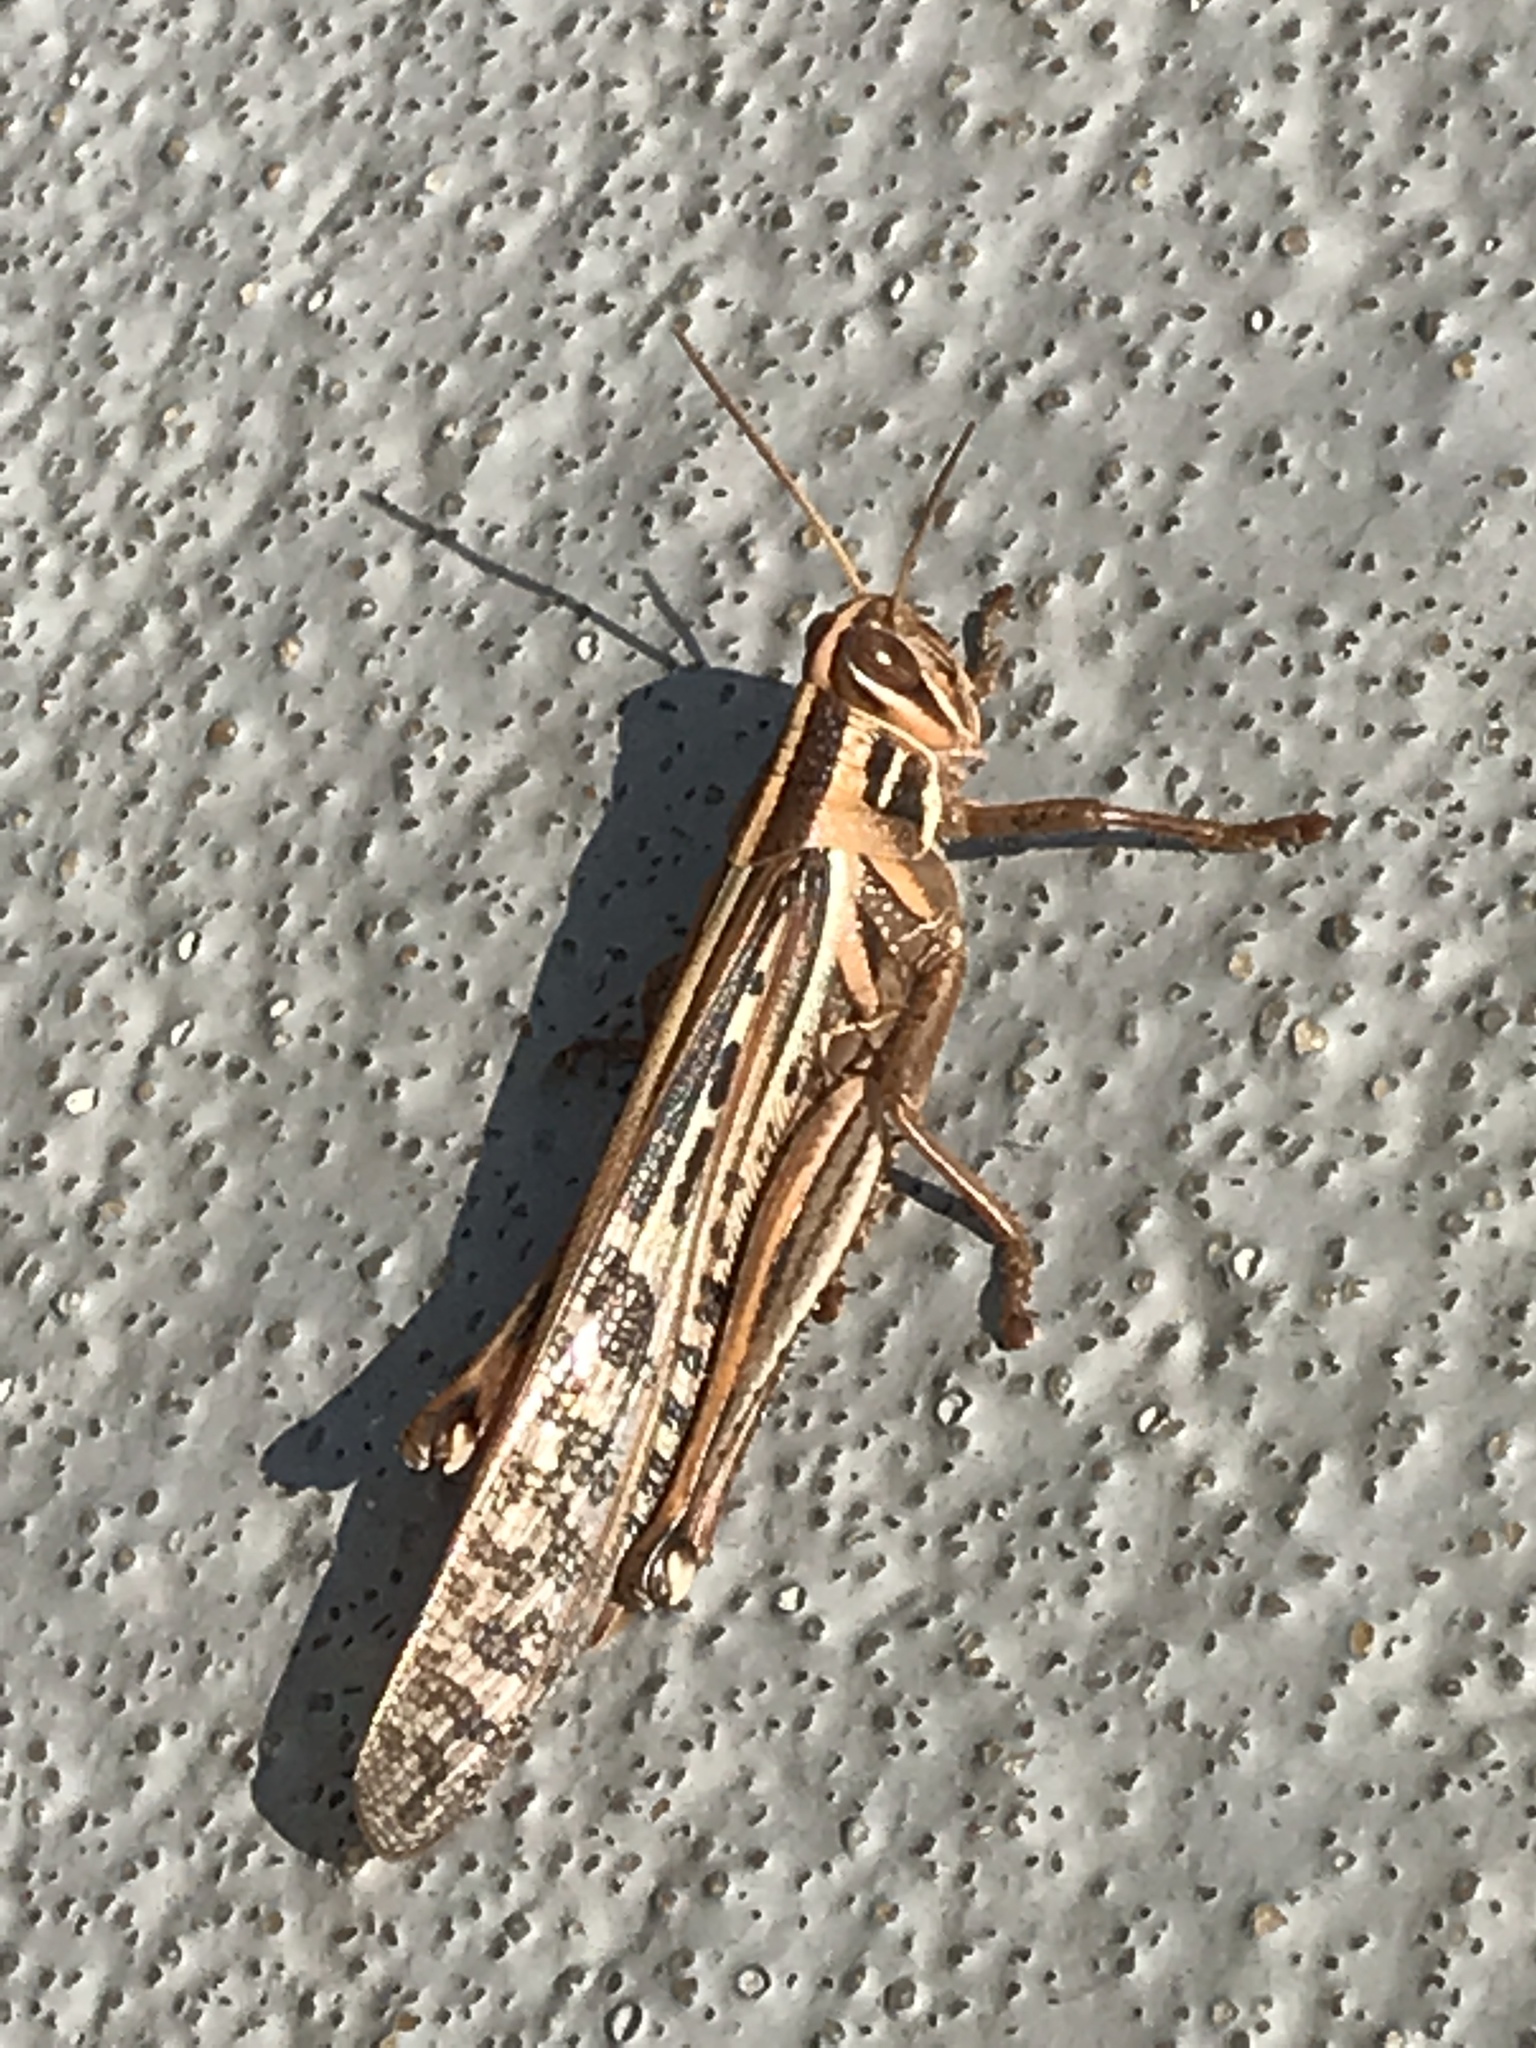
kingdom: Animalia
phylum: Arthropoda
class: Insecta
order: Orthoptera
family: Acrididae
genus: Schistocerca
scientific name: Schistocerca americana
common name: American bird locust
